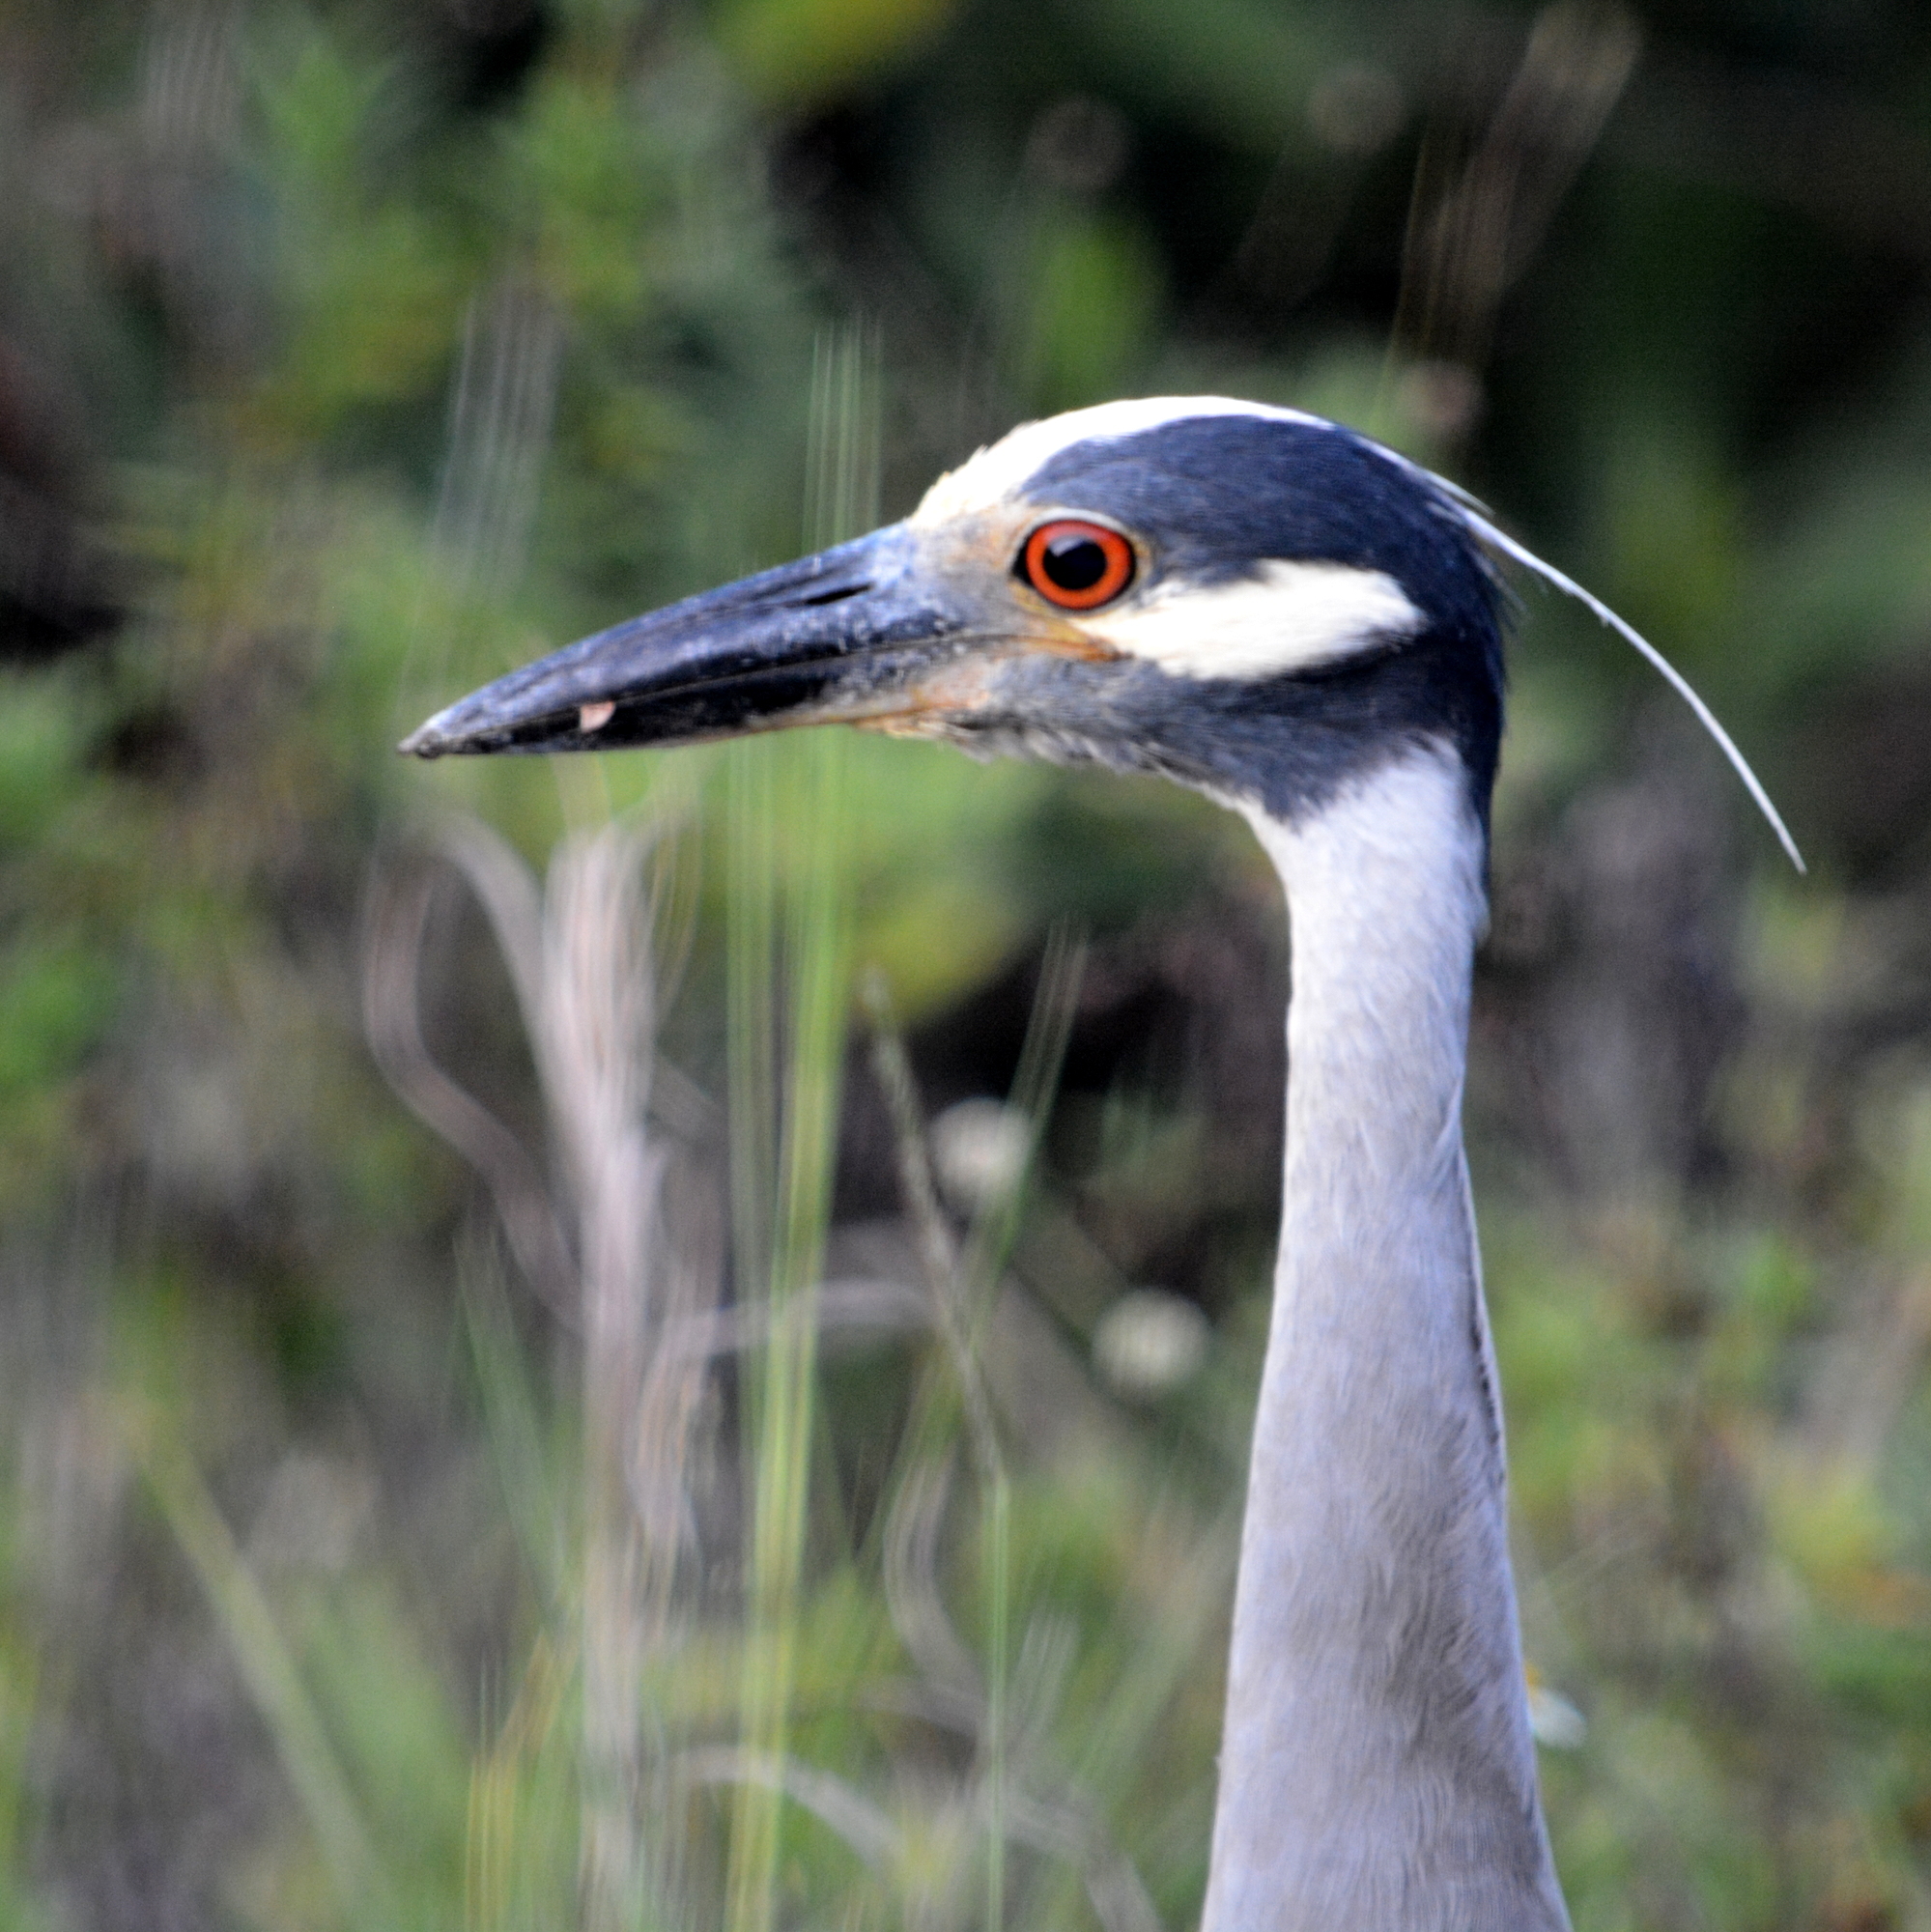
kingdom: Animalia
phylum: Chordata
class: Aves
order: Pelecaniformes
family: Ardeidae
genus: Nyctanassa
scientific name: Nyctanassa violacea
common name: Yellow-crowned night heron
